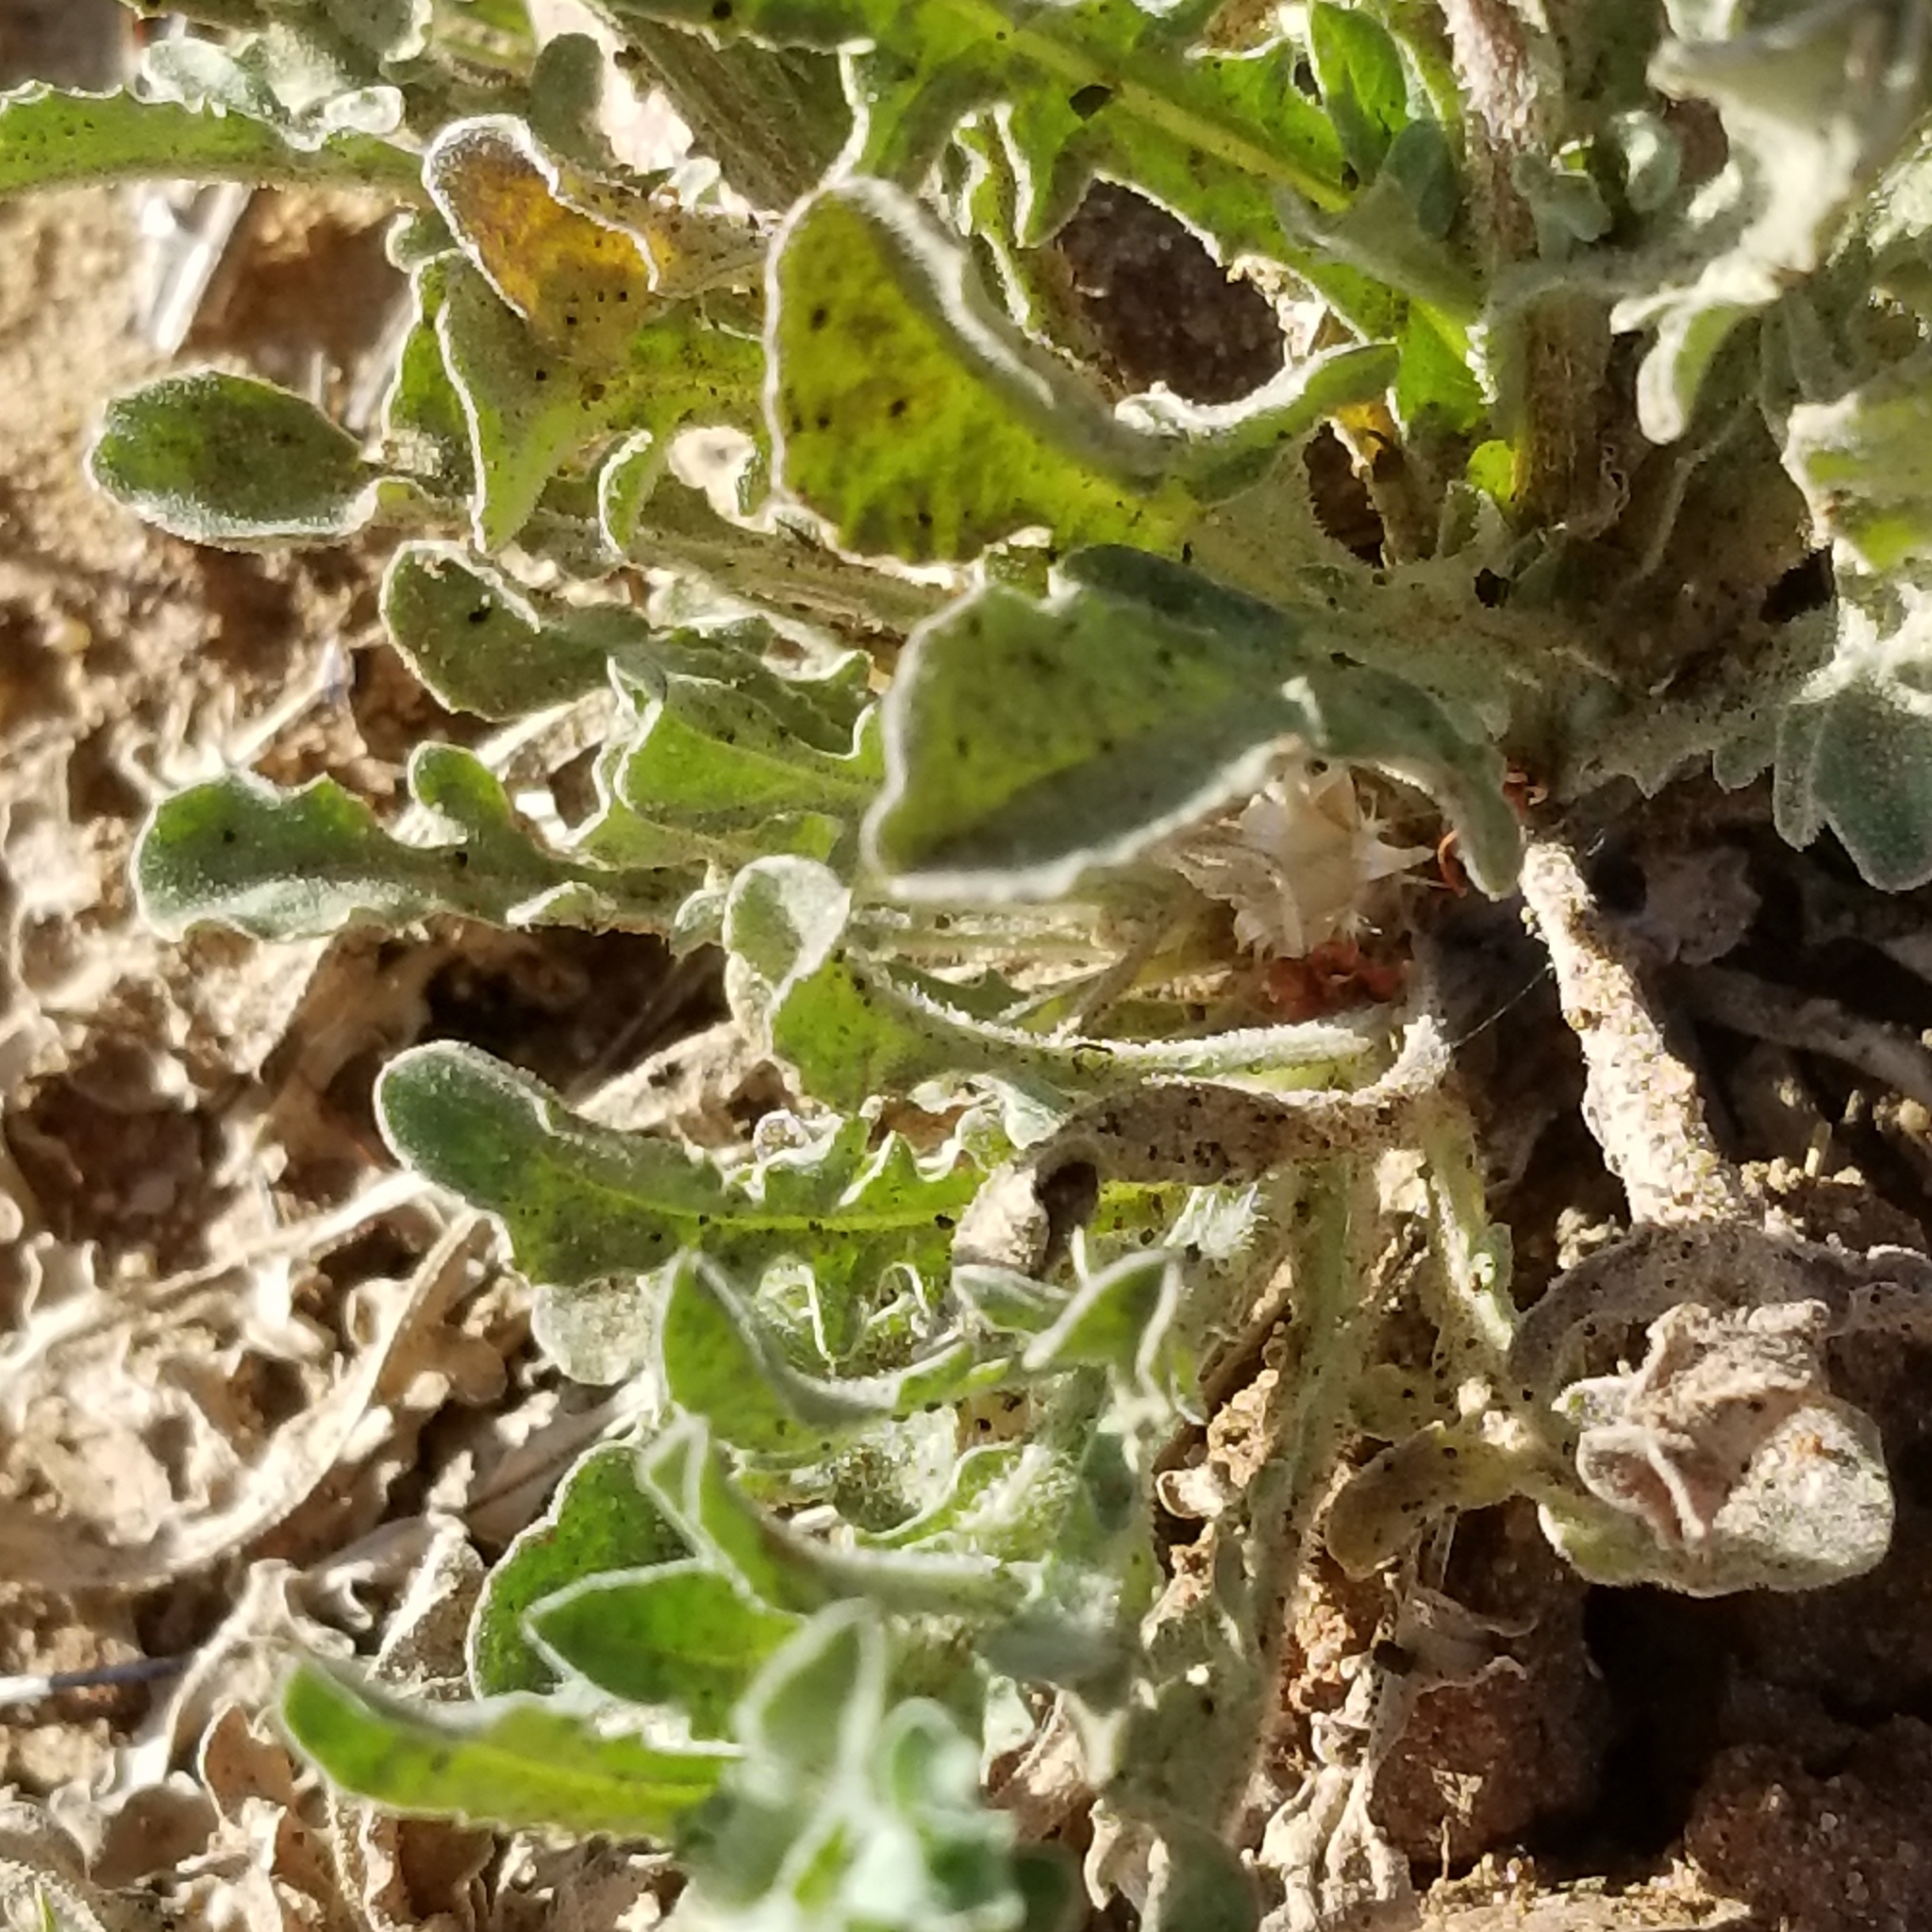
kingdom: Plantae
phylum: Tracheophyta
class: Magnoliopsida
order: Asterales
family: Asteraceae
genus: Centaurea
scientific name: Centaurea melitensis
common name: Maltese star-thistle
